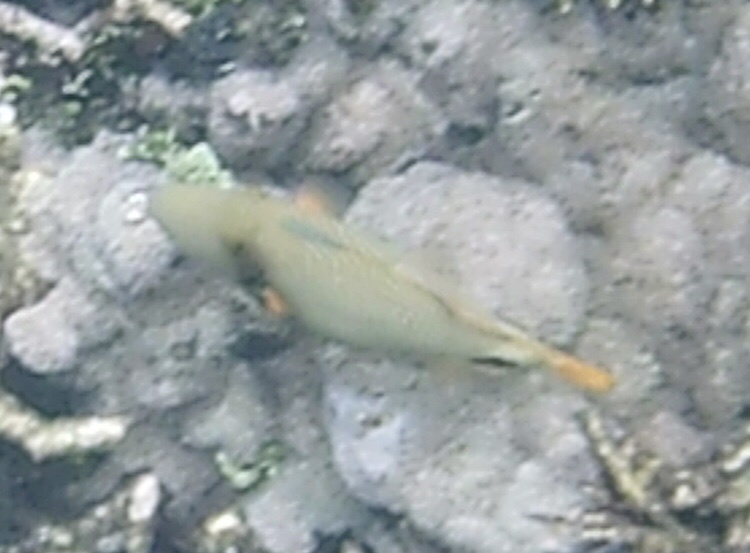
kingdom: Animalia
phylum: Chordata
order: Tetraodontiformes
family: Balistidae
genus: Balistapus
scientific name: Balistapus undulatus
